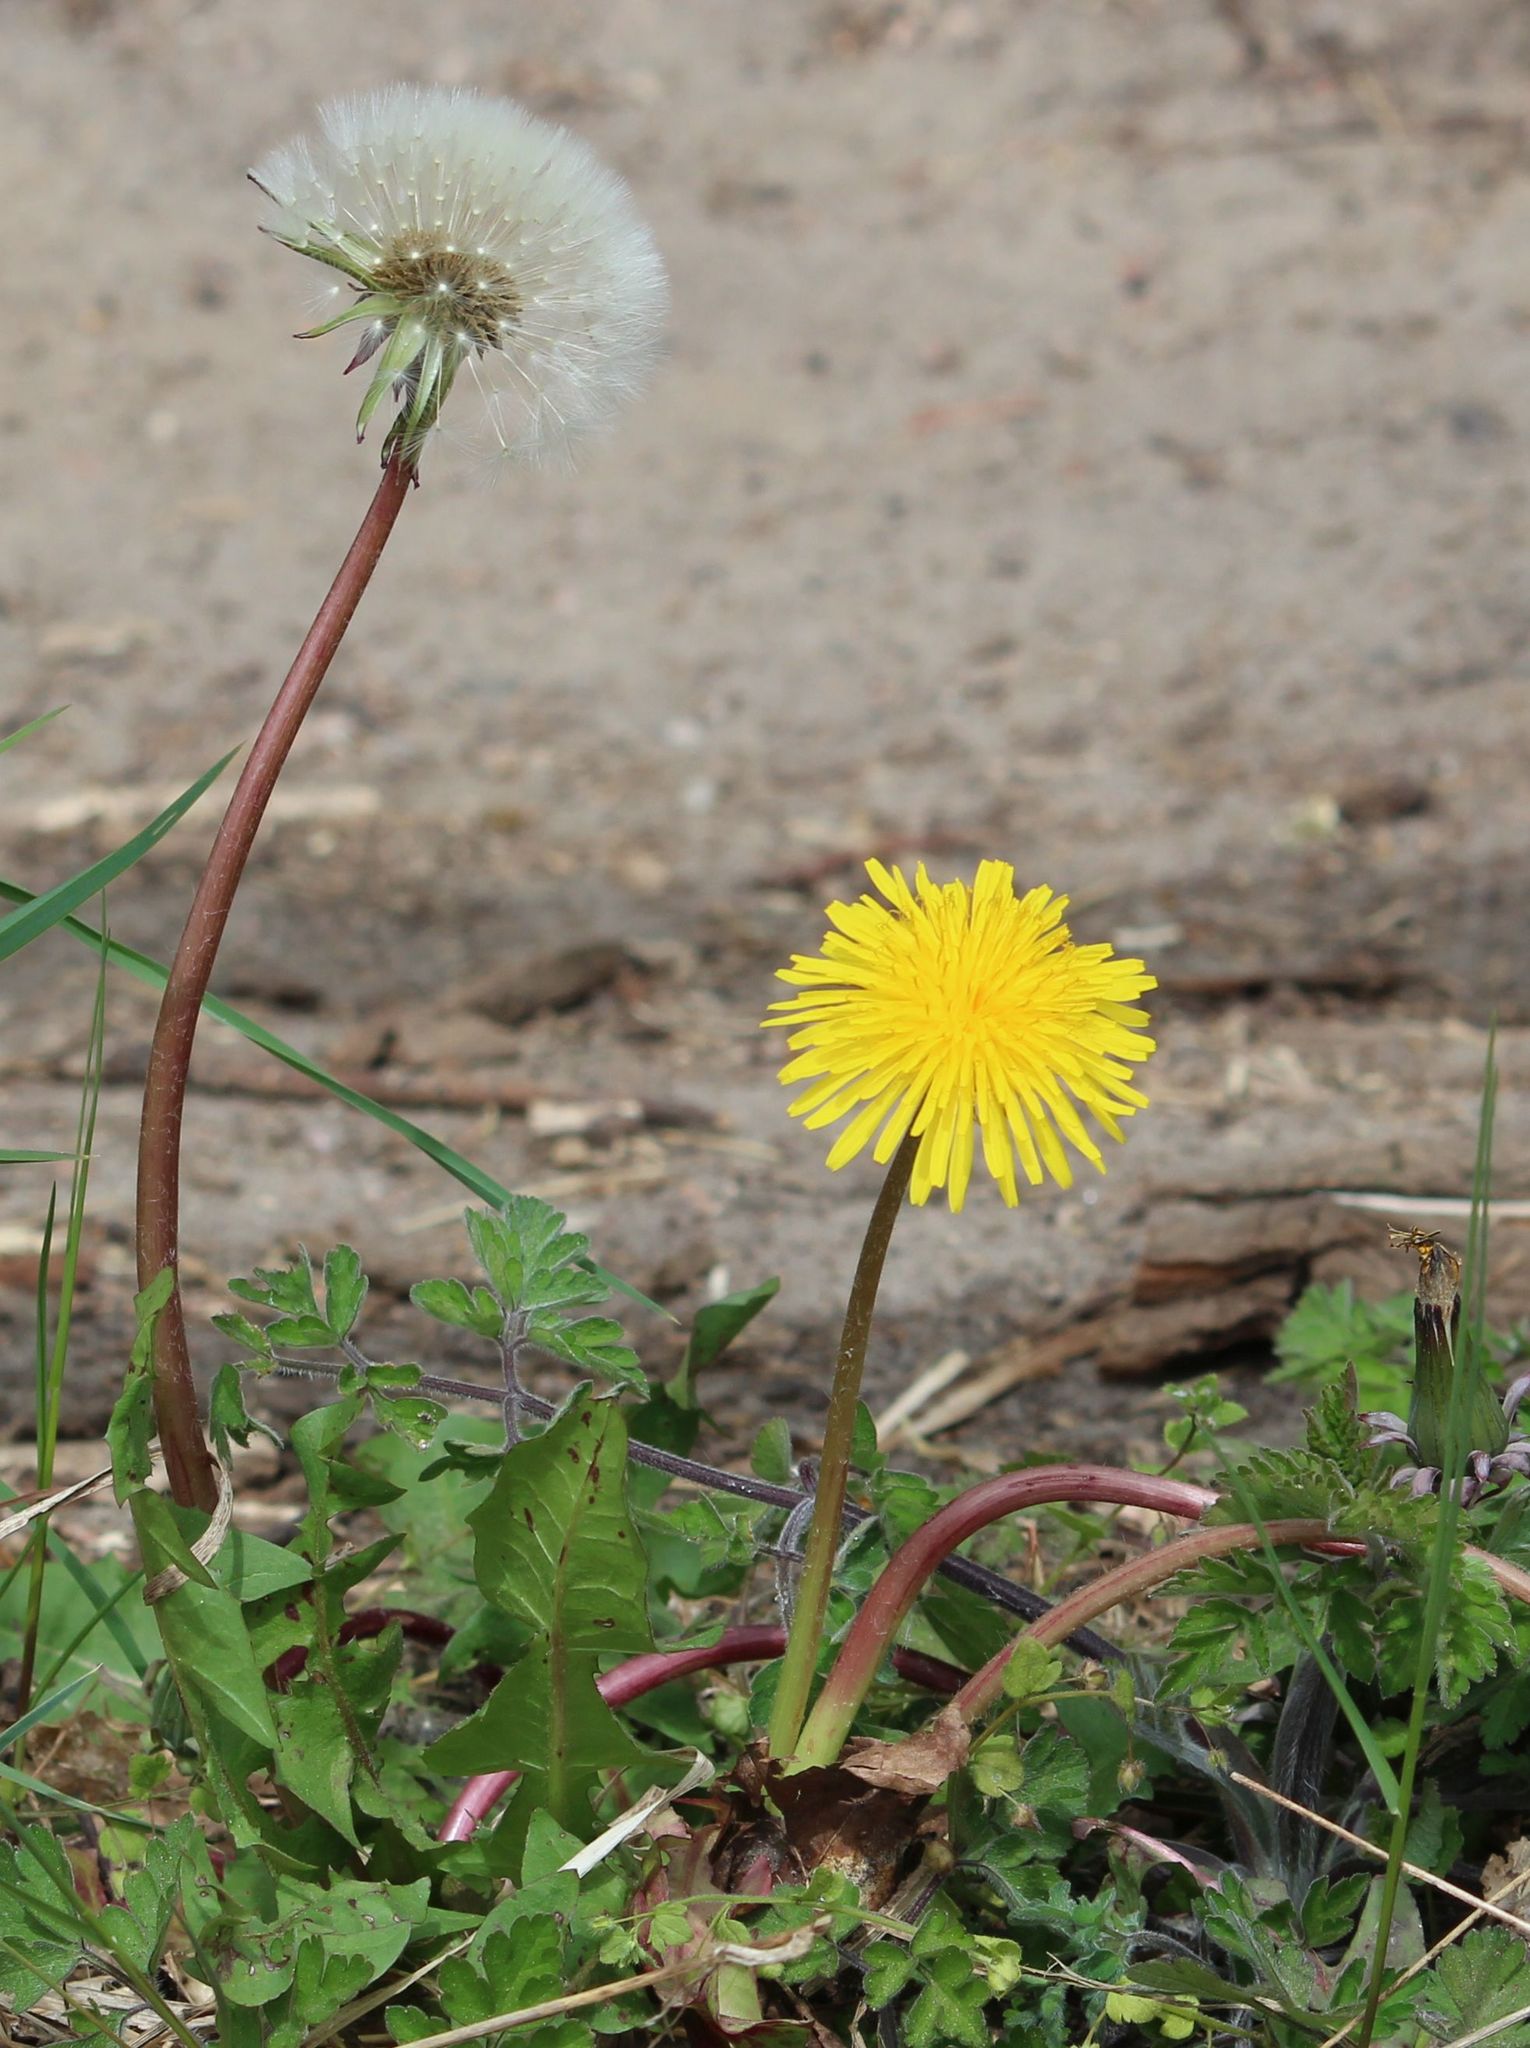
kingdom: Plantae
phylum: Tracheophyta
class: Magnoliopsida
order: Asterales
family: Asteraceae
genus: Taraxacum
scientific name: Taraxacum
